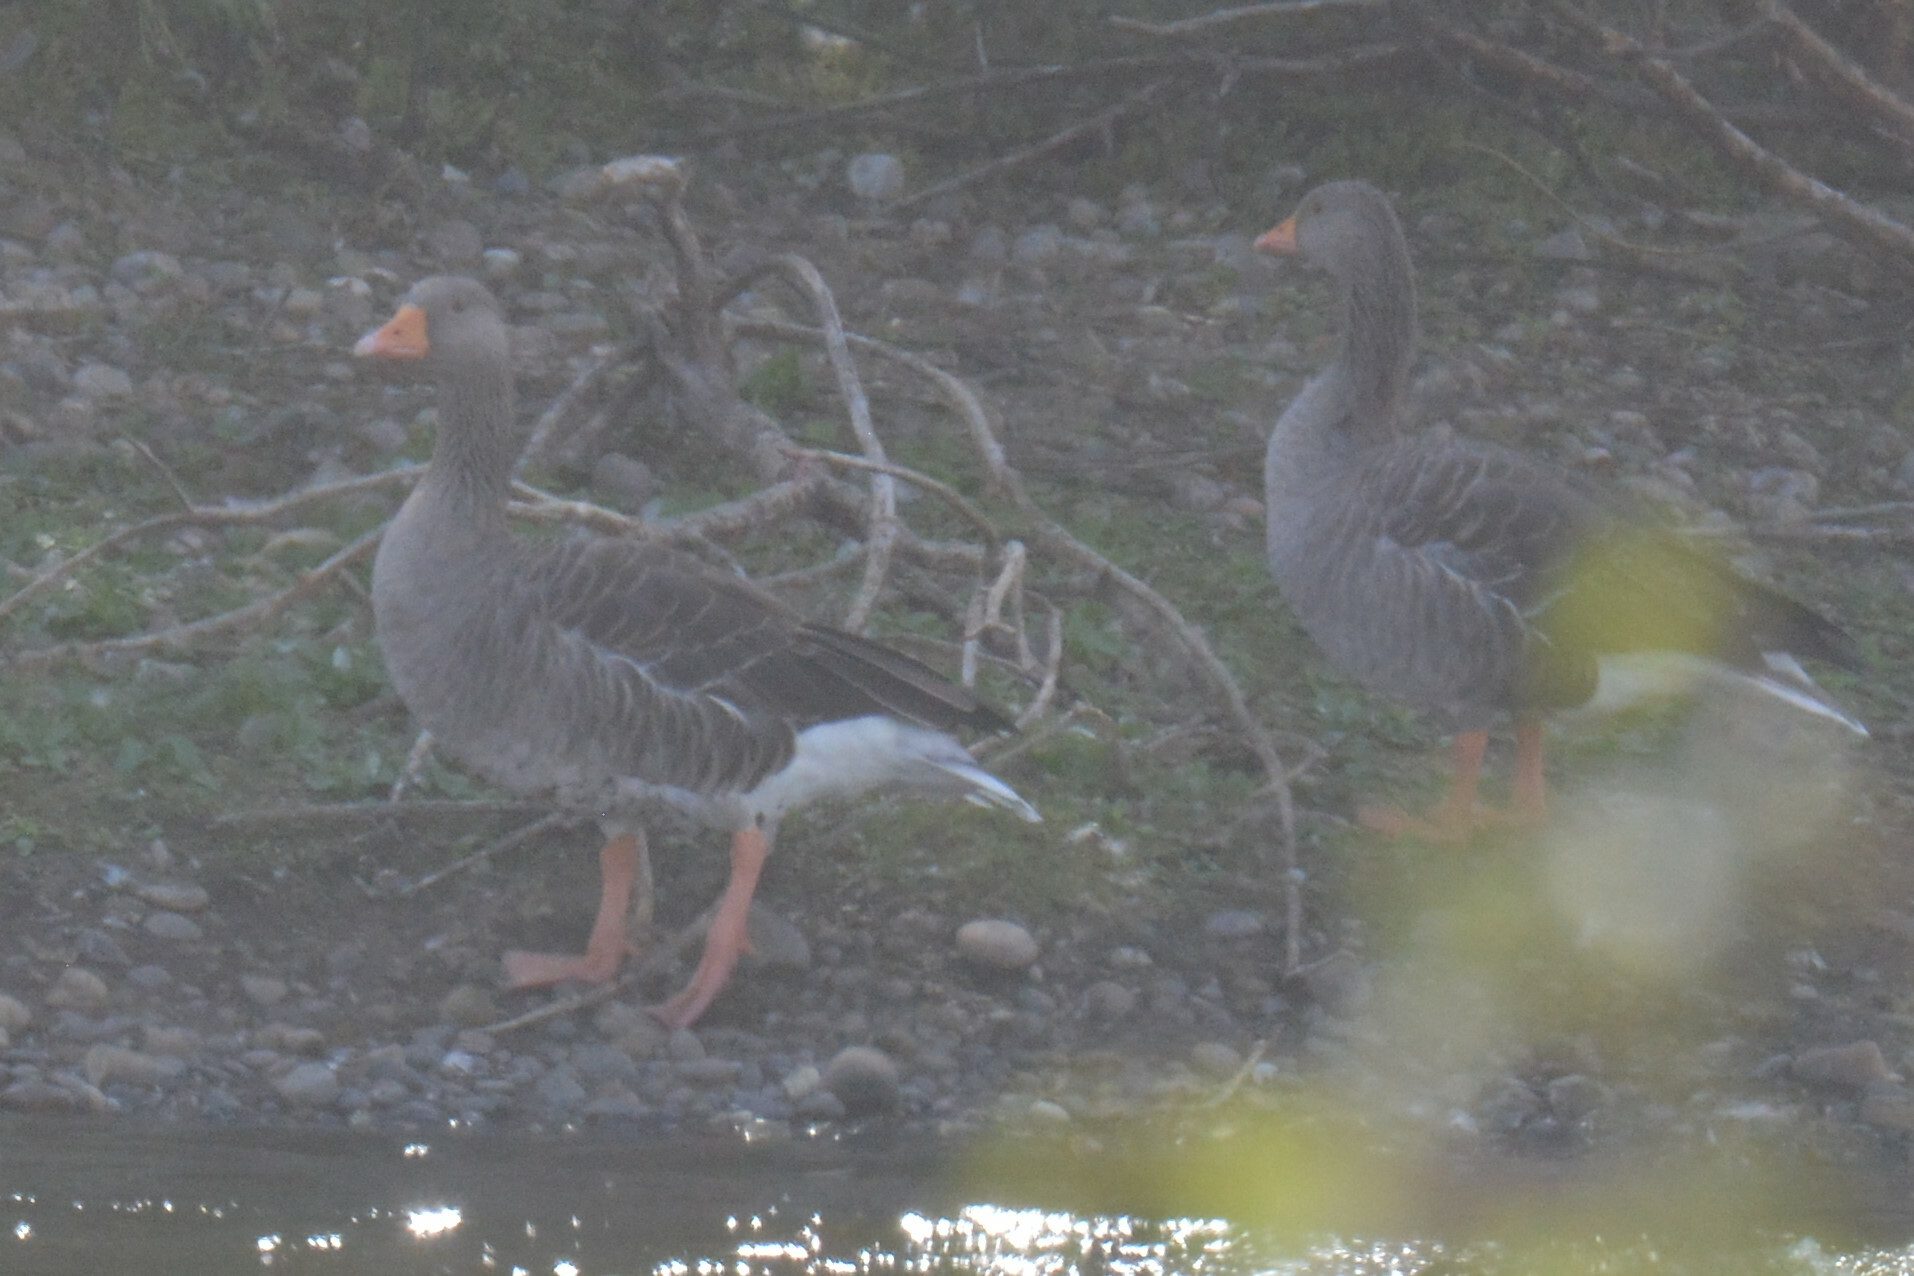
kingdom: Animalia
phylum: Chordata
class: Aves
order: Anseriformes
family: Anatidae
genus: Anser
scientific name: Anser anser
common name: Greylag goose
